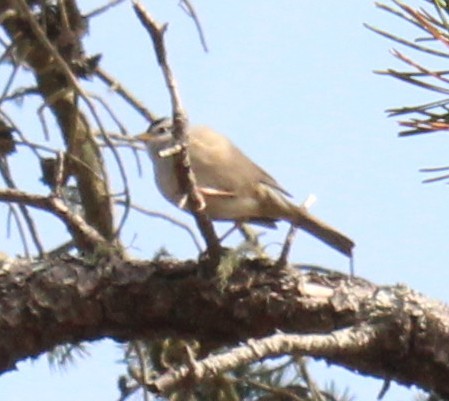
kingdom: Animalia
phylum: Chordata
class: Aves
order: Passeriformes
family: Passerellidae
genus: Zonotrichia
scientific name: Zonotrichia leucophrys
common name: White-crowned sparrow
